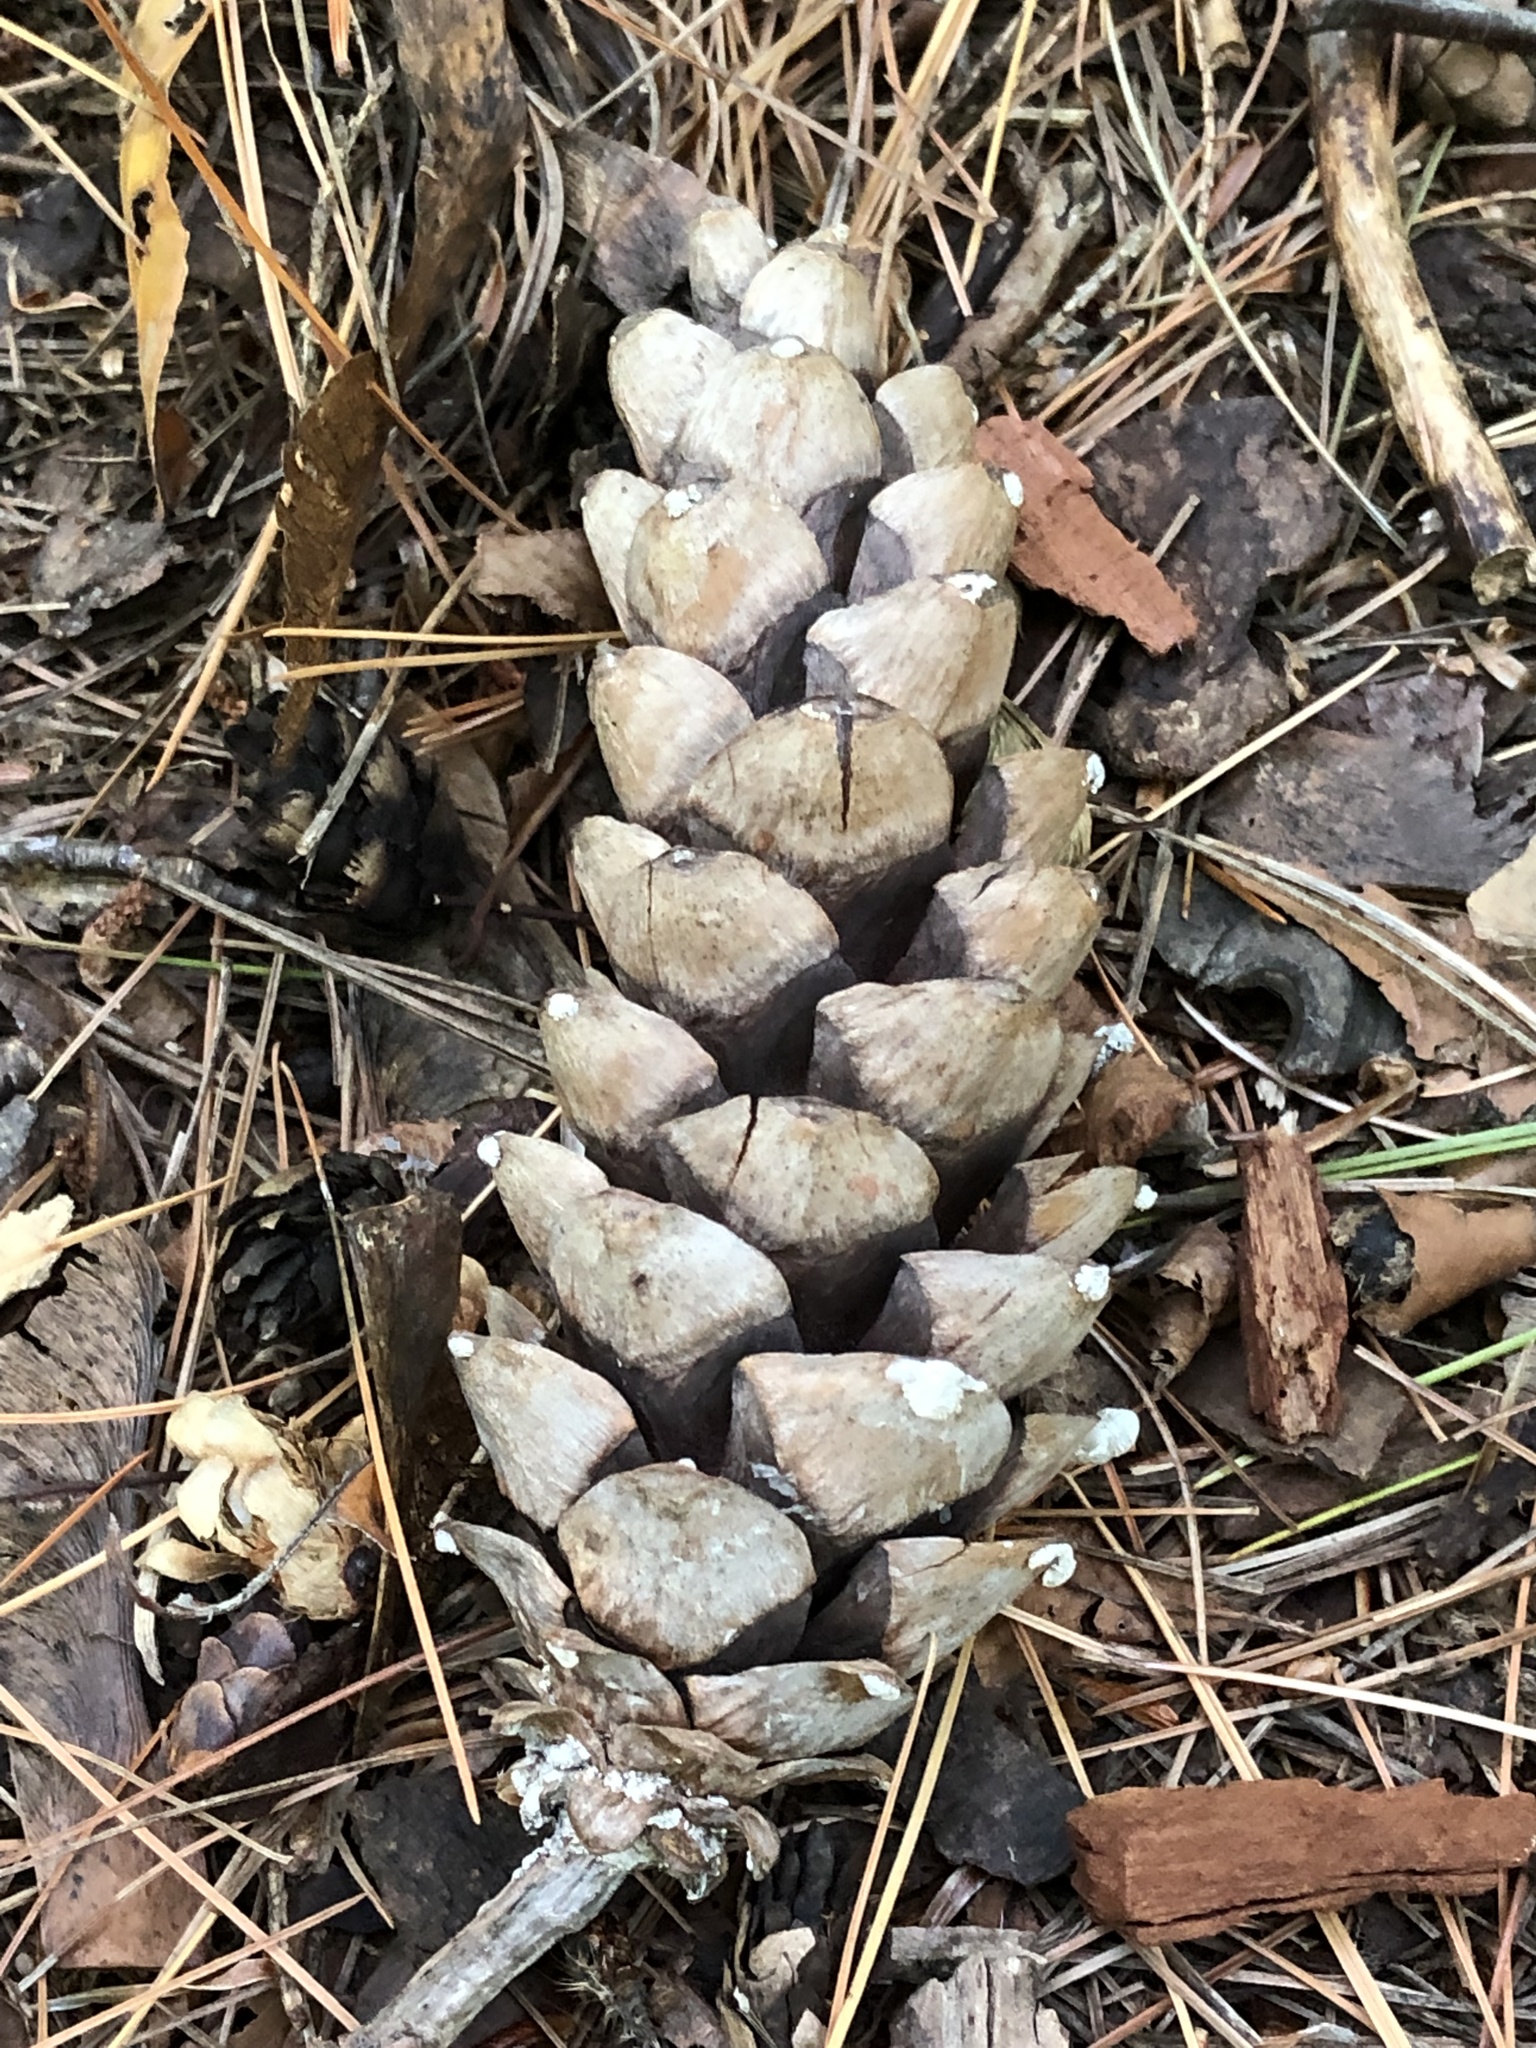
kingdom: Plantae
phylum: Tracheophyta
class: Pinopsida
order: Pinales
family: Pinaceae
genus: Pinus
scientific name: Pinus strobus
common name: Weymouth pine
